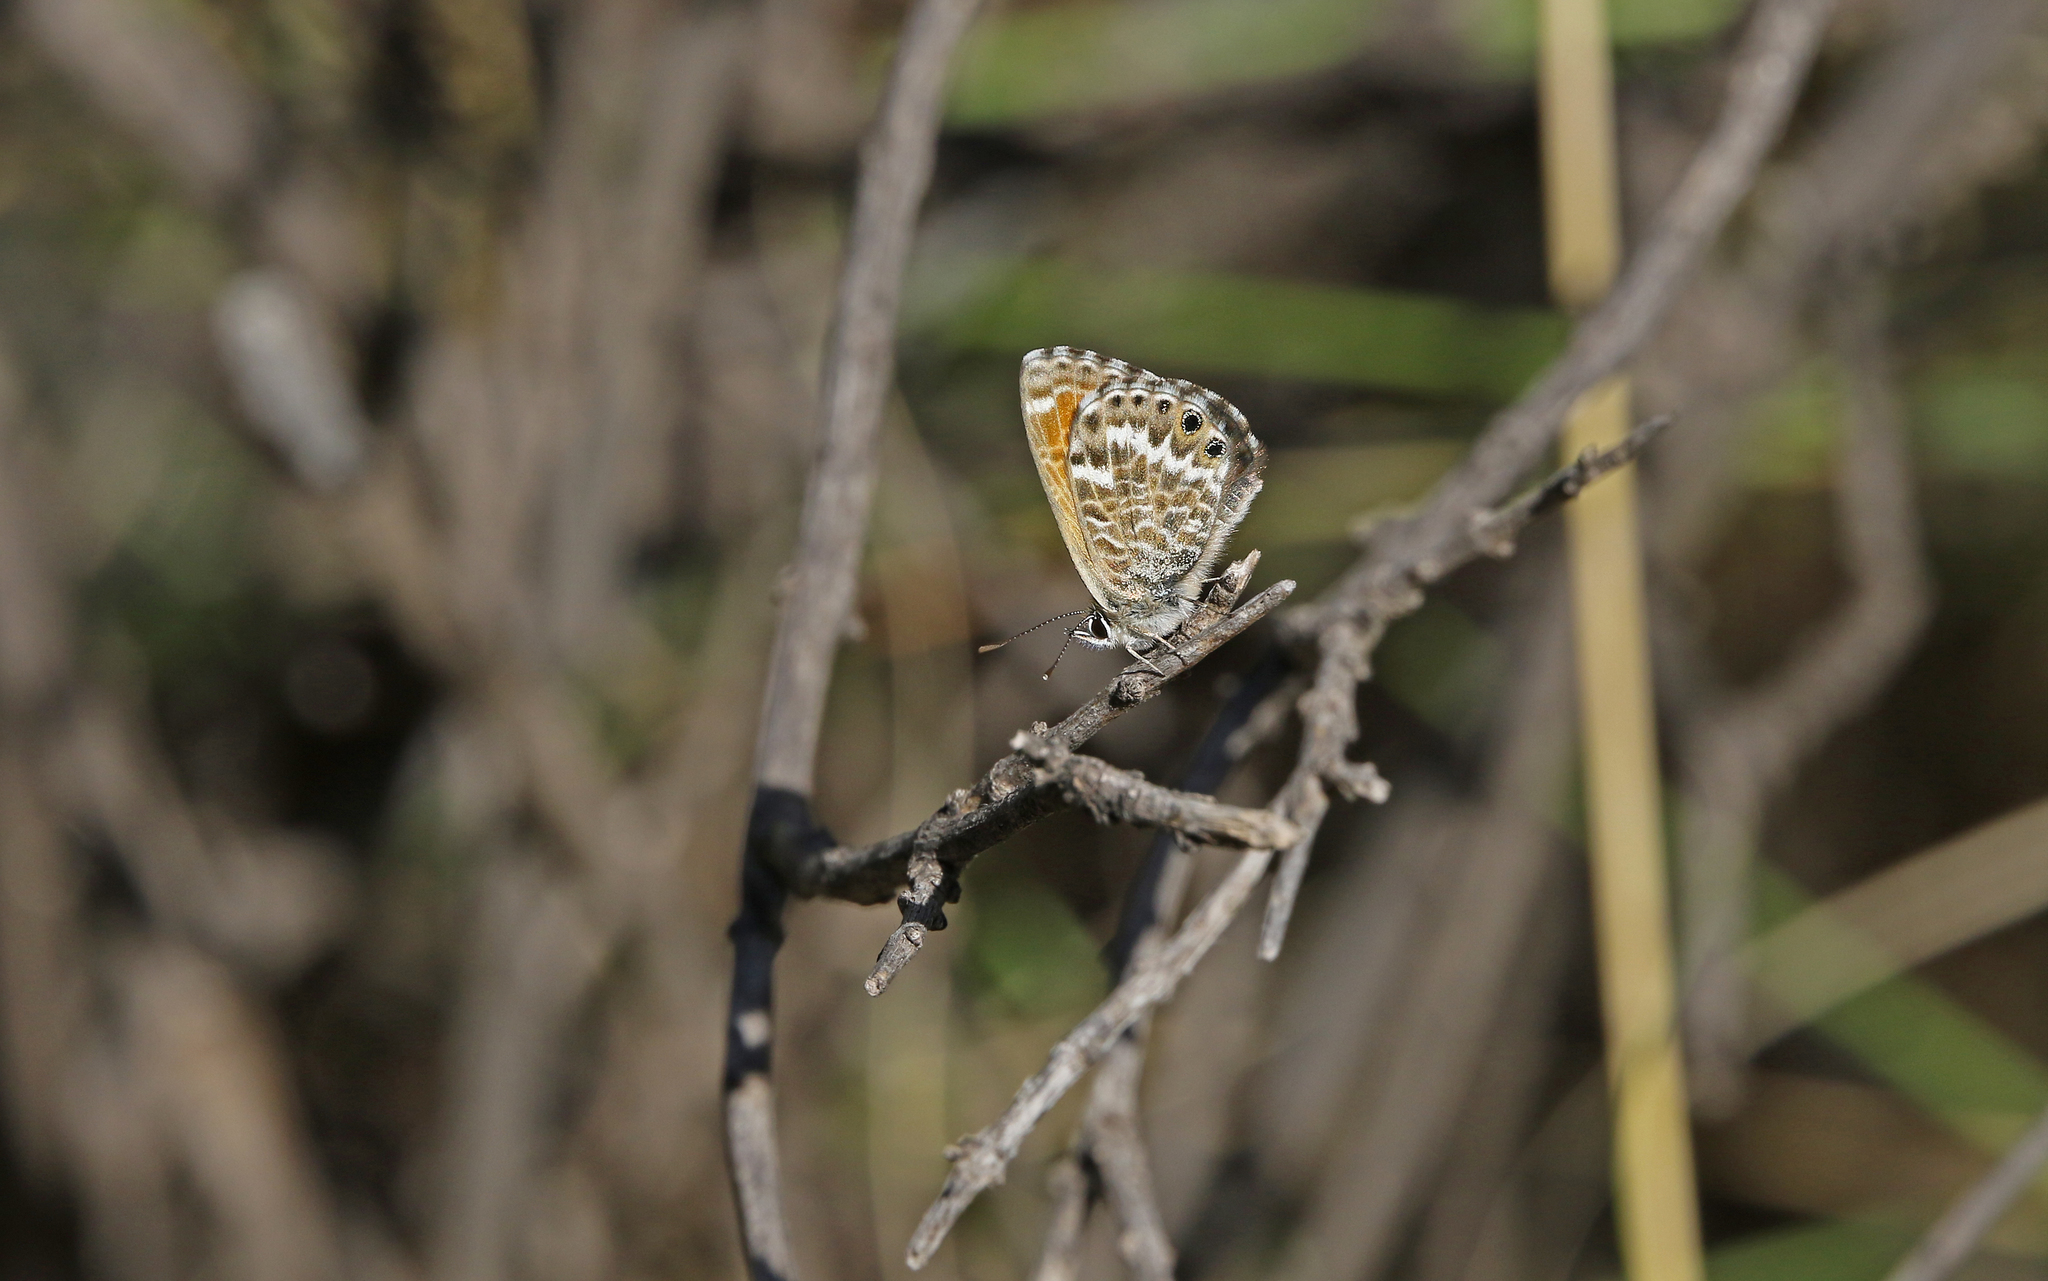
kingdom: Animalia
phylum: Arthropoda
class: Insecta
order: Lepidoptera
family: Lycaenidae
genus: Cyclyrius
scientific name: Cyclyrius webbianus
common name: Canary blue
